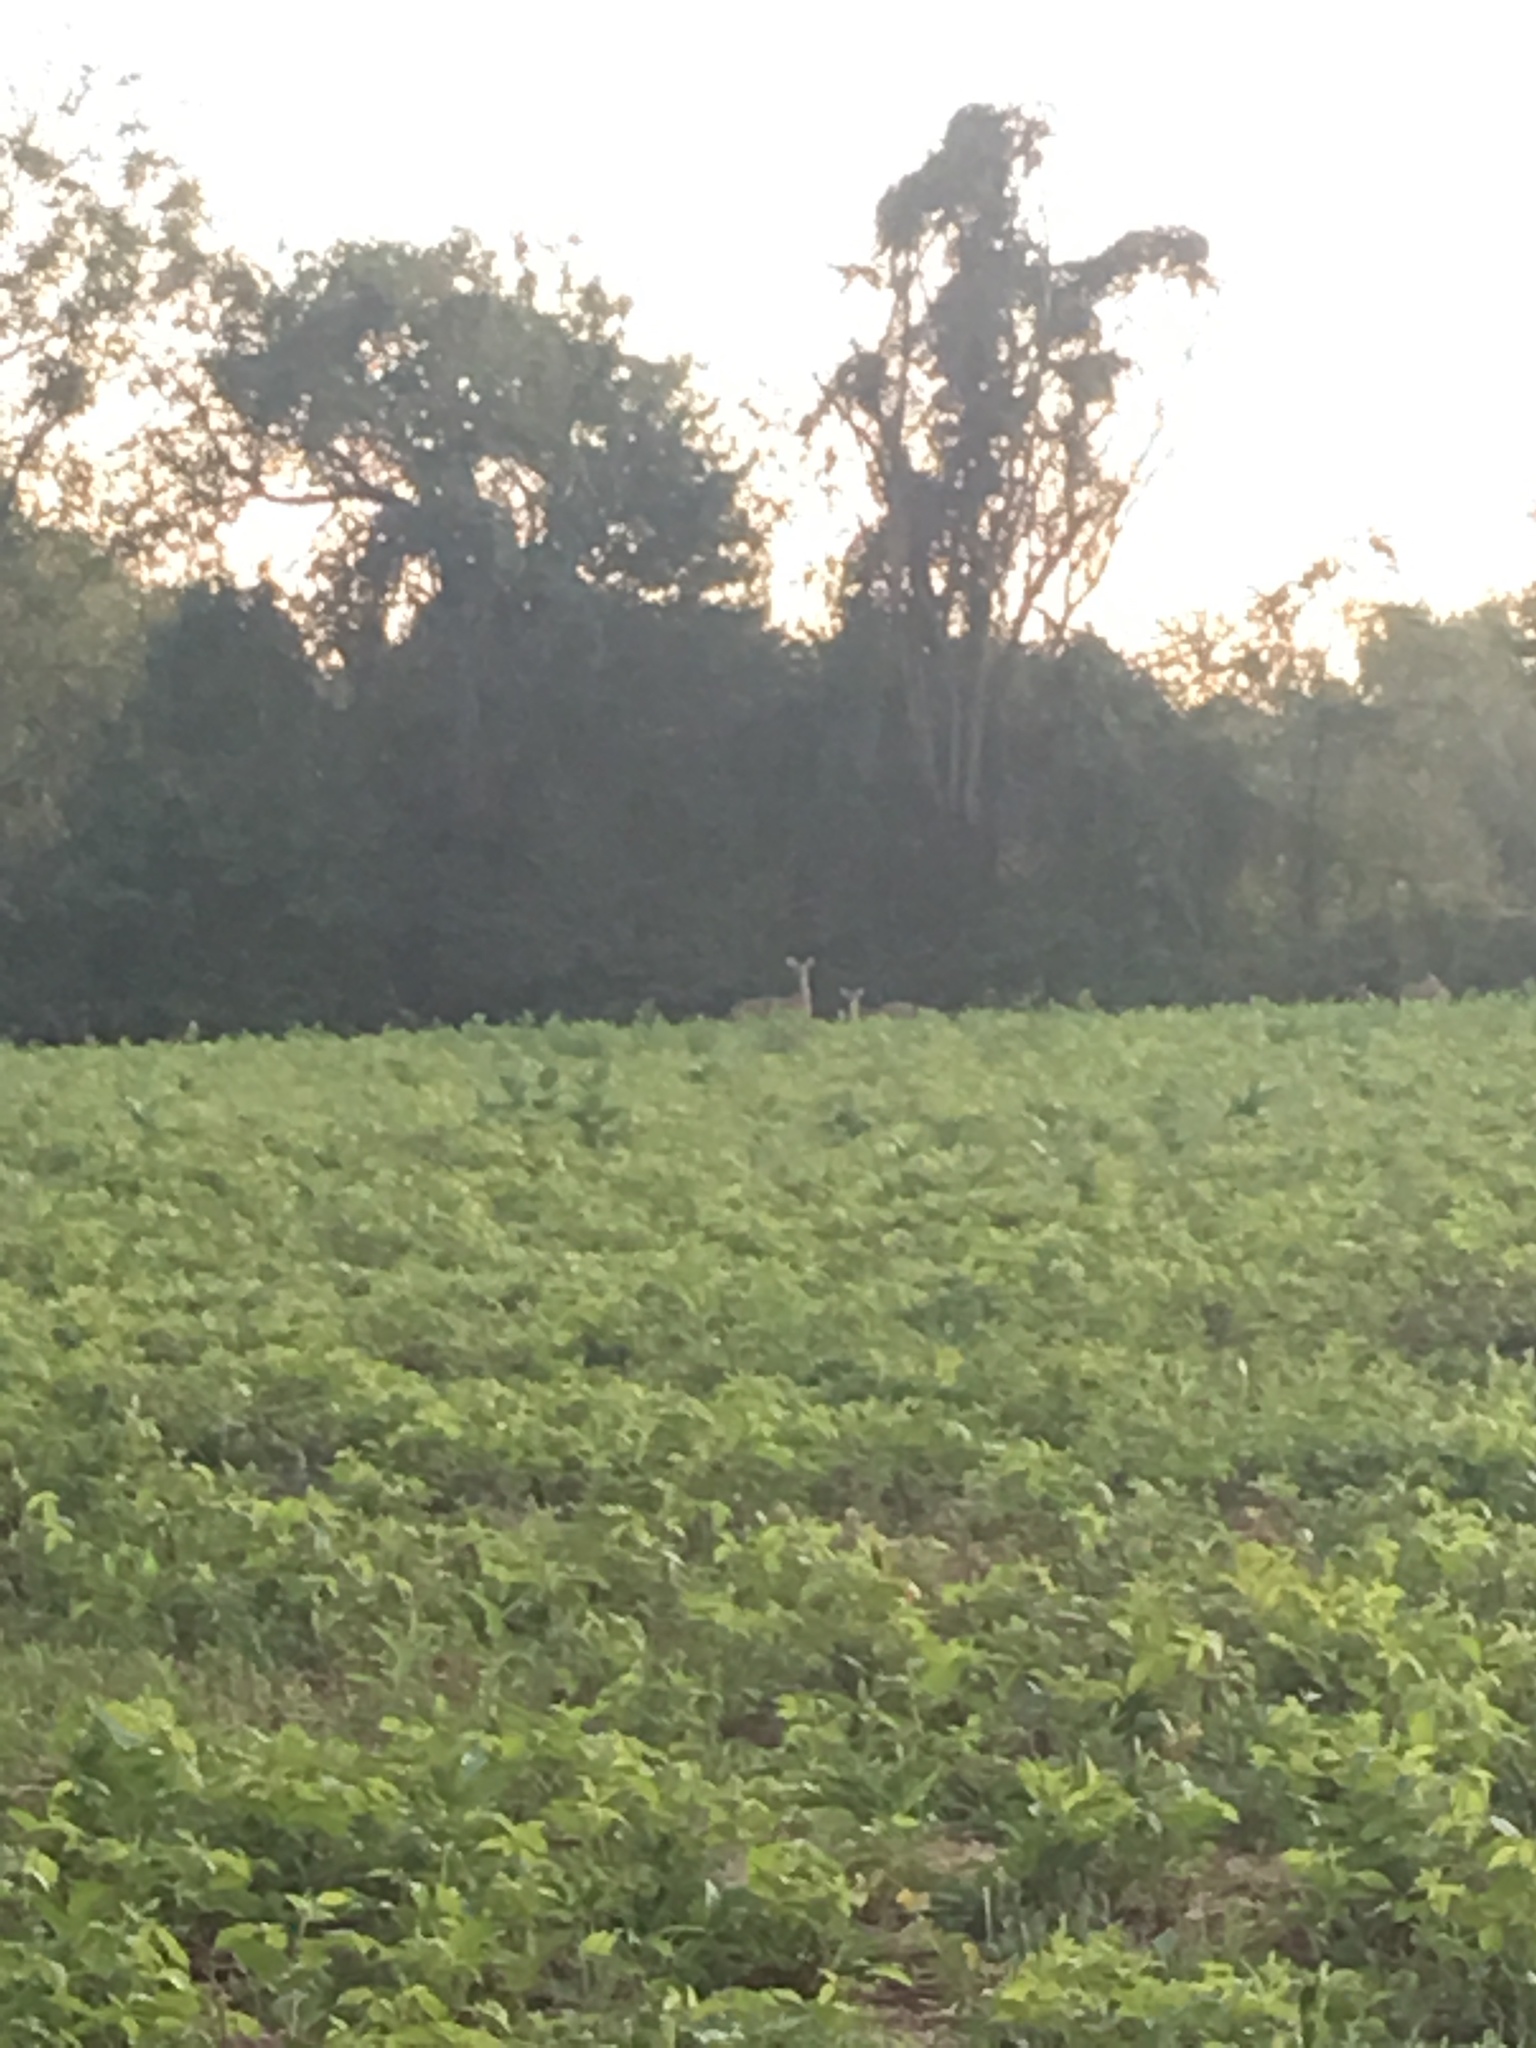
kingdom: Animalia
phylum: Chordata
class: Mammalia
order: Artiodactyla
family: Cervidae
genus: Odocoileus
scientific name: Odocoileus virginianus
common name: White-tailed deer
